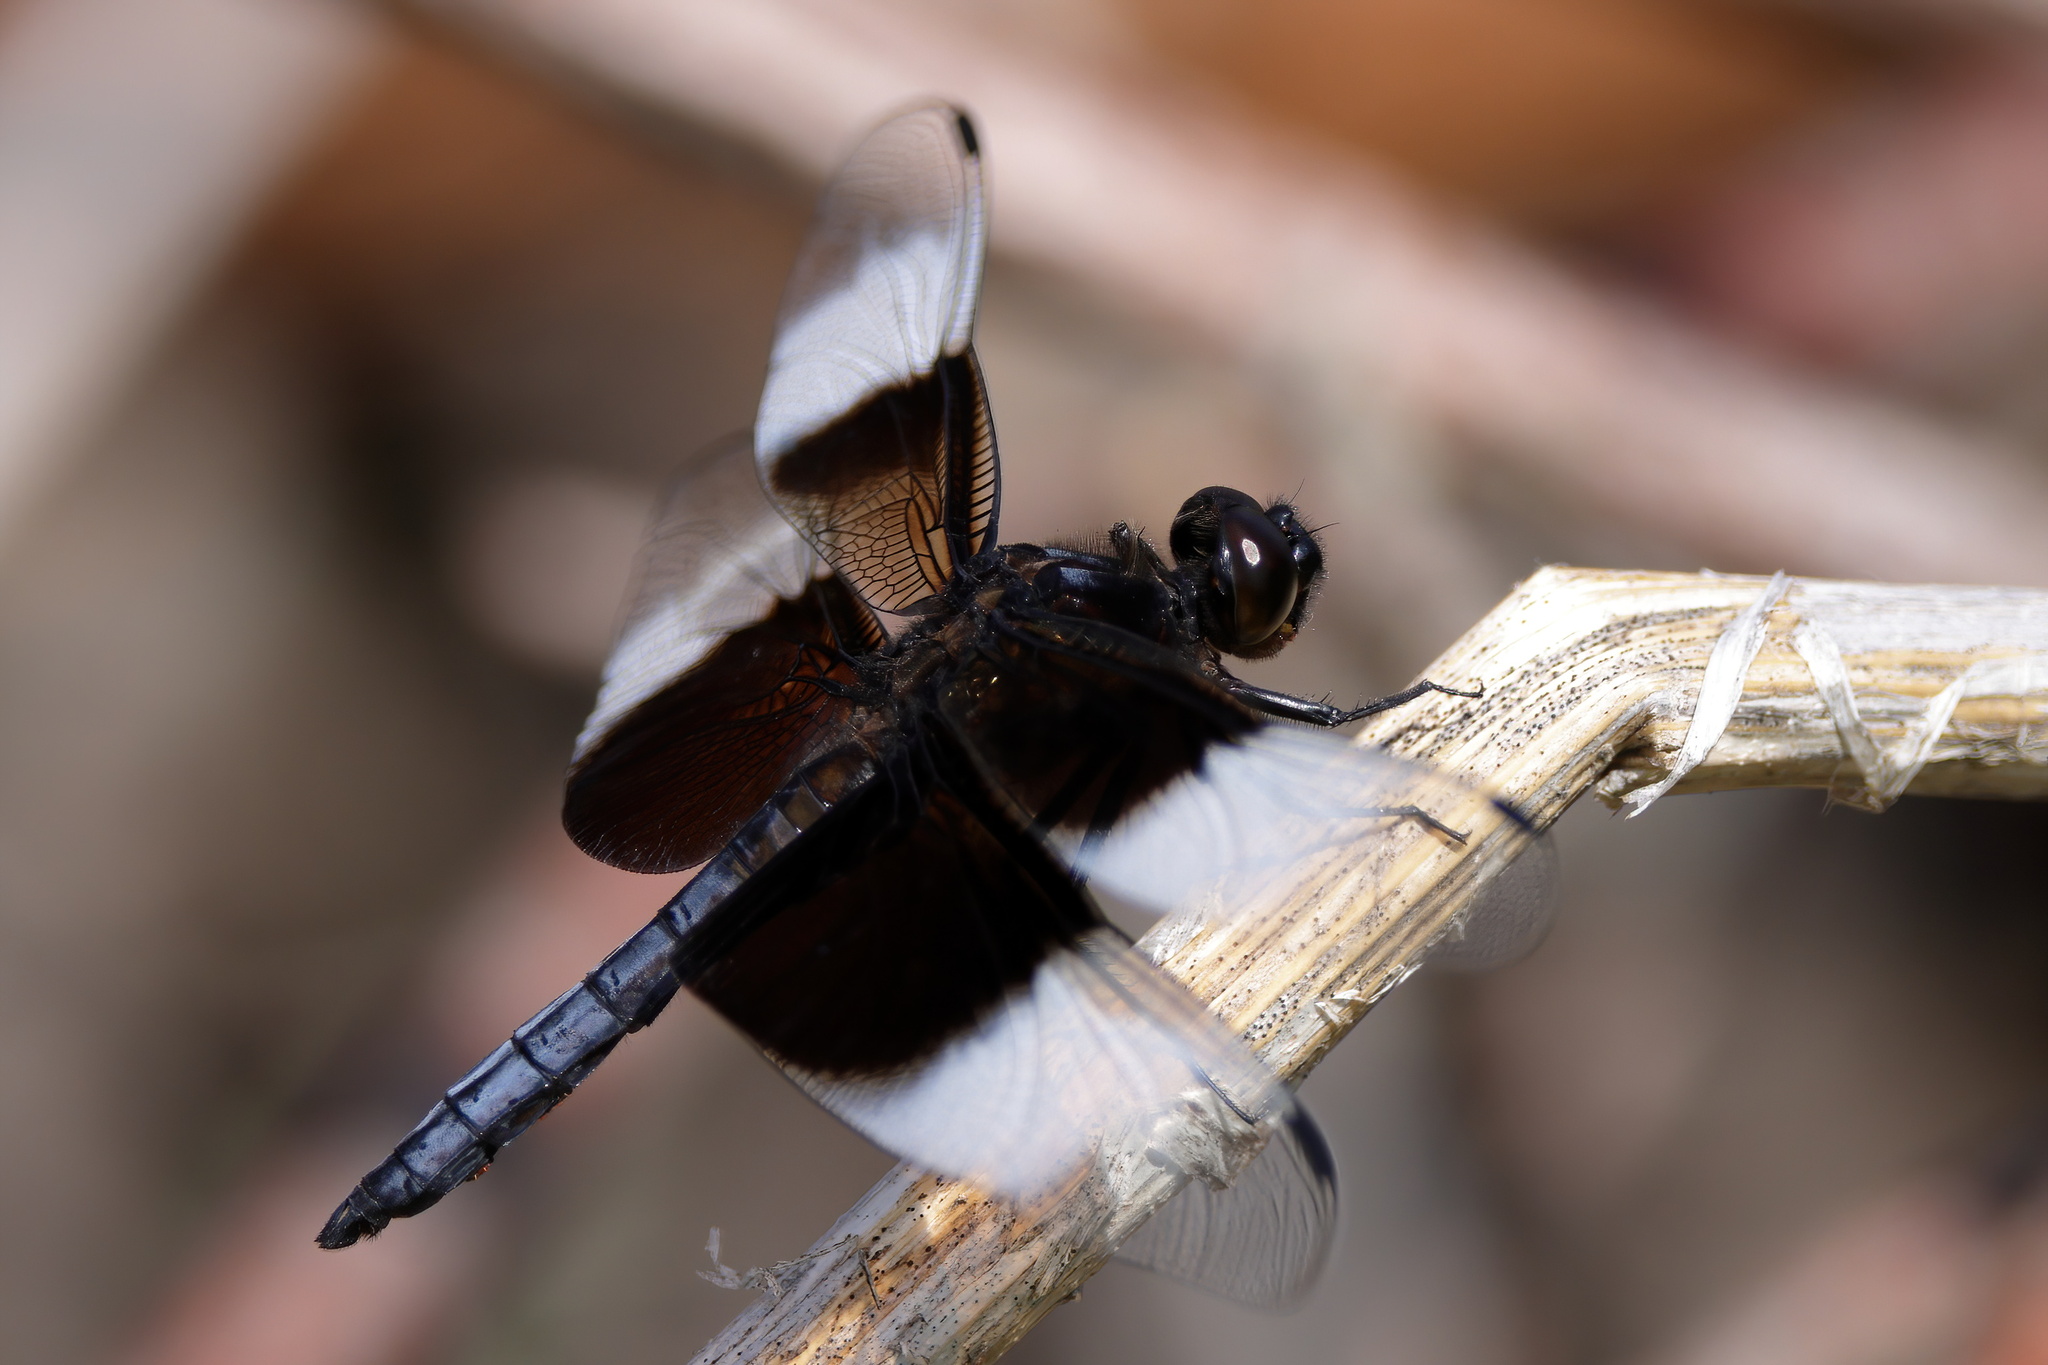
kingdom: Animalia
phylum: Arthropoda
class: Insecta
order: Odonata
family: Libellulidae
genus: Libellula
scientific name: Libellula luctuosa
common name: Widow skimmer
